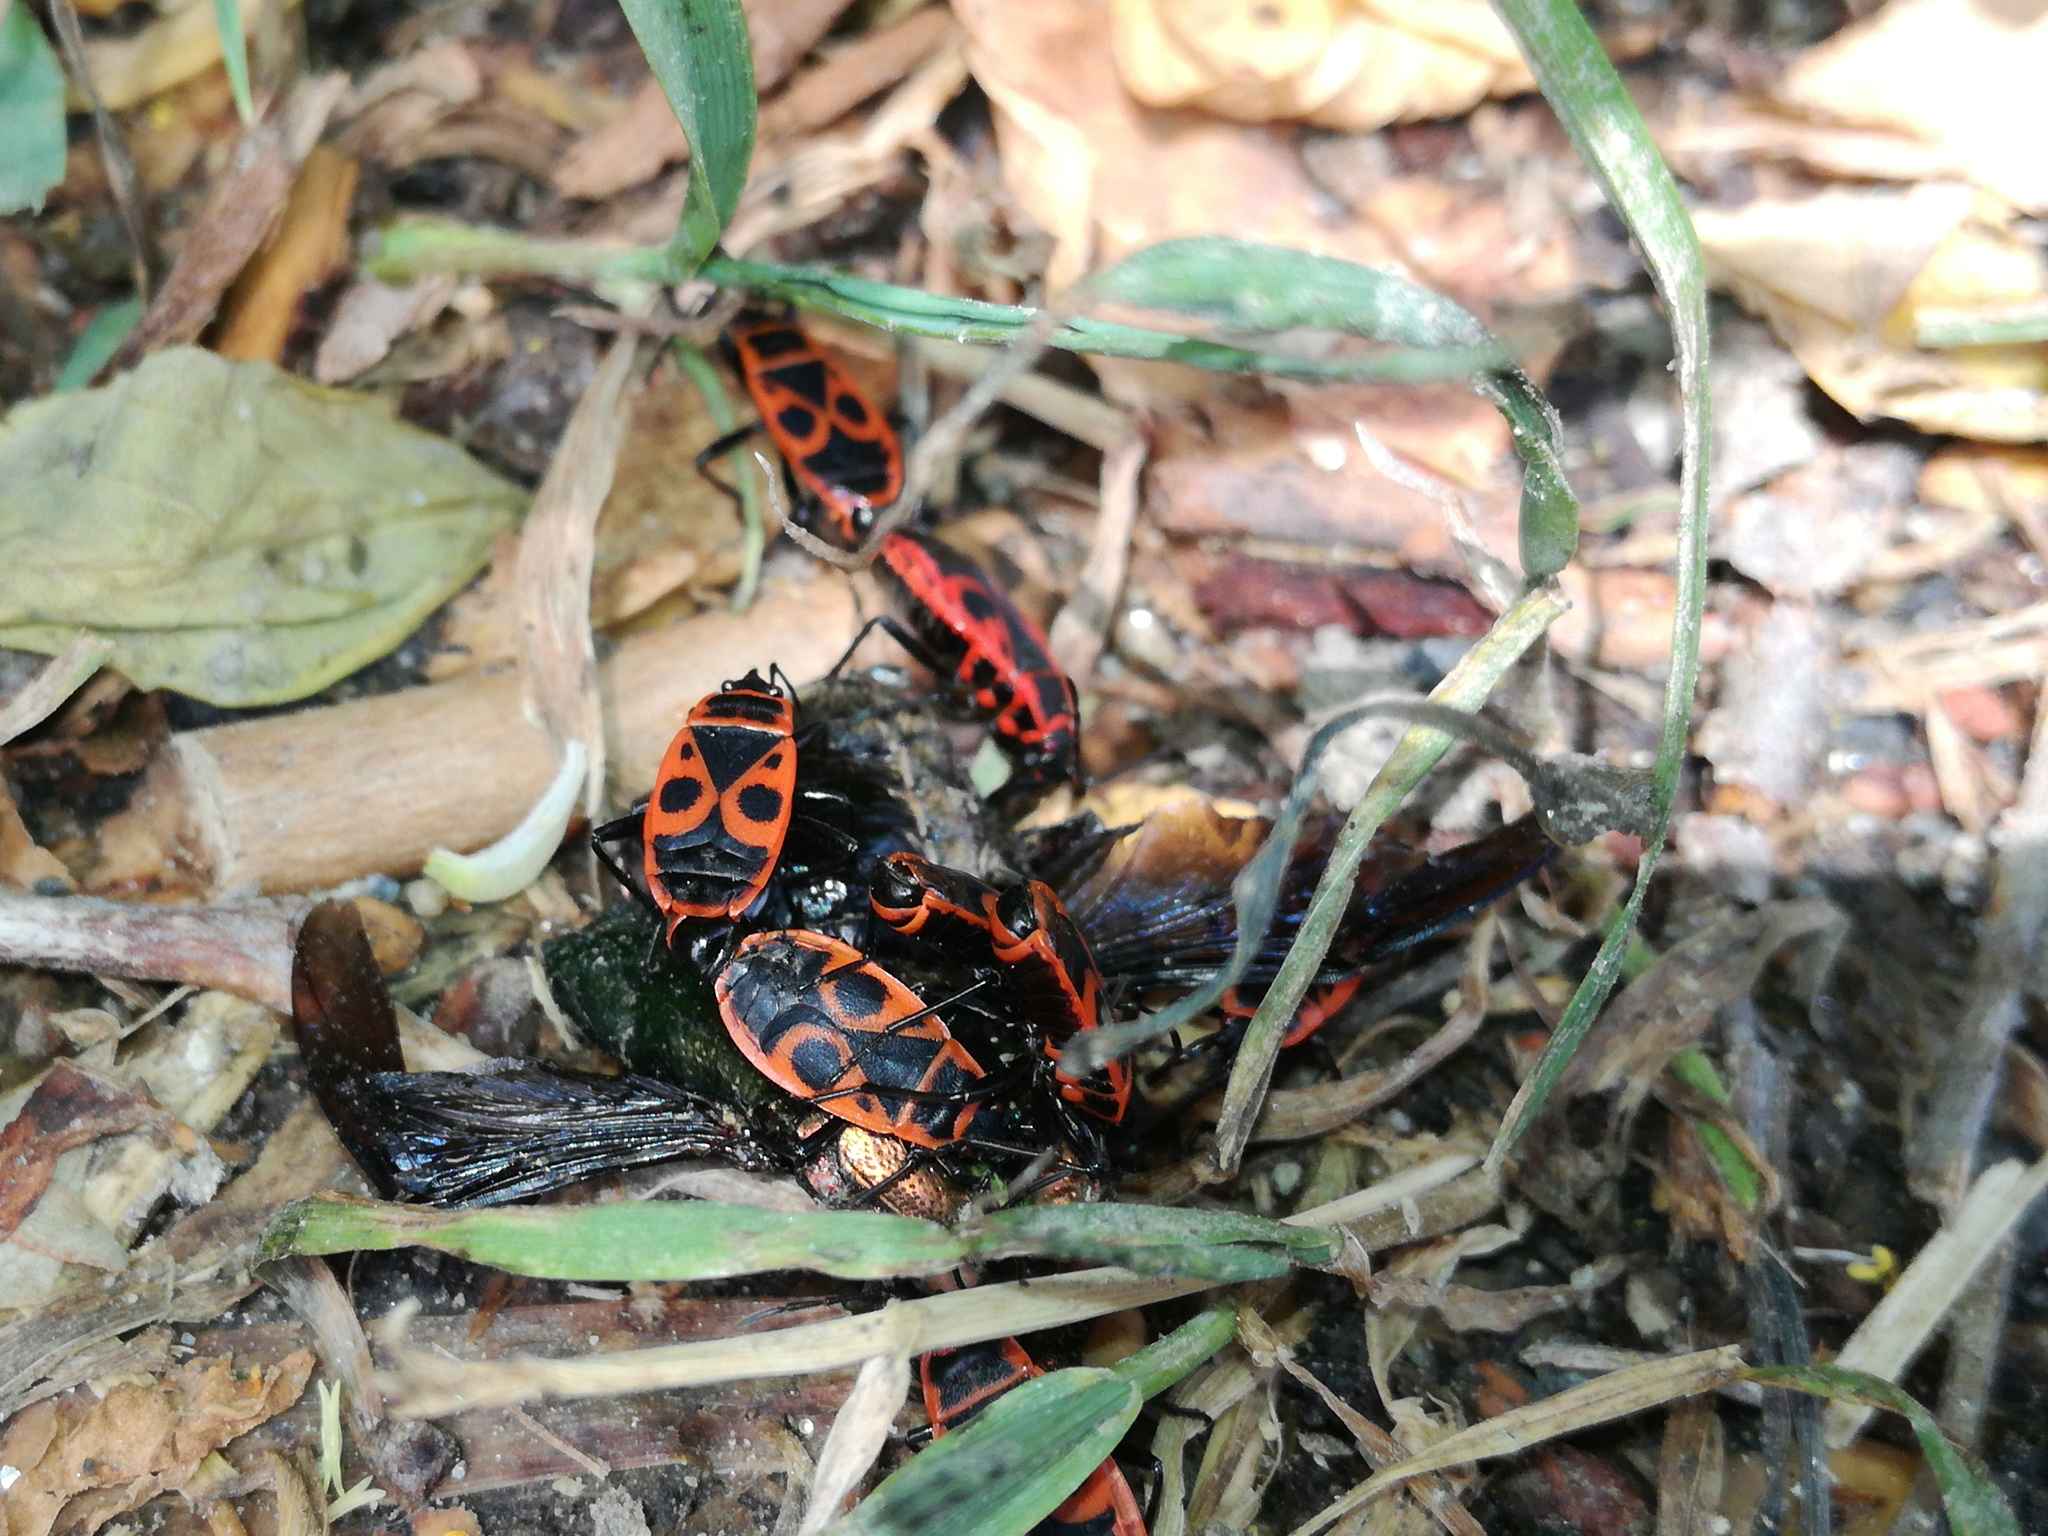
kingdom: Animalia
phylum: Arthropoda
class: Insecta
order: Hemiptera
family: Pyrrhocoridae
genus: Pyrrhocoris
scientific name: Pyrrhocoris apterus
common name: Firebug
